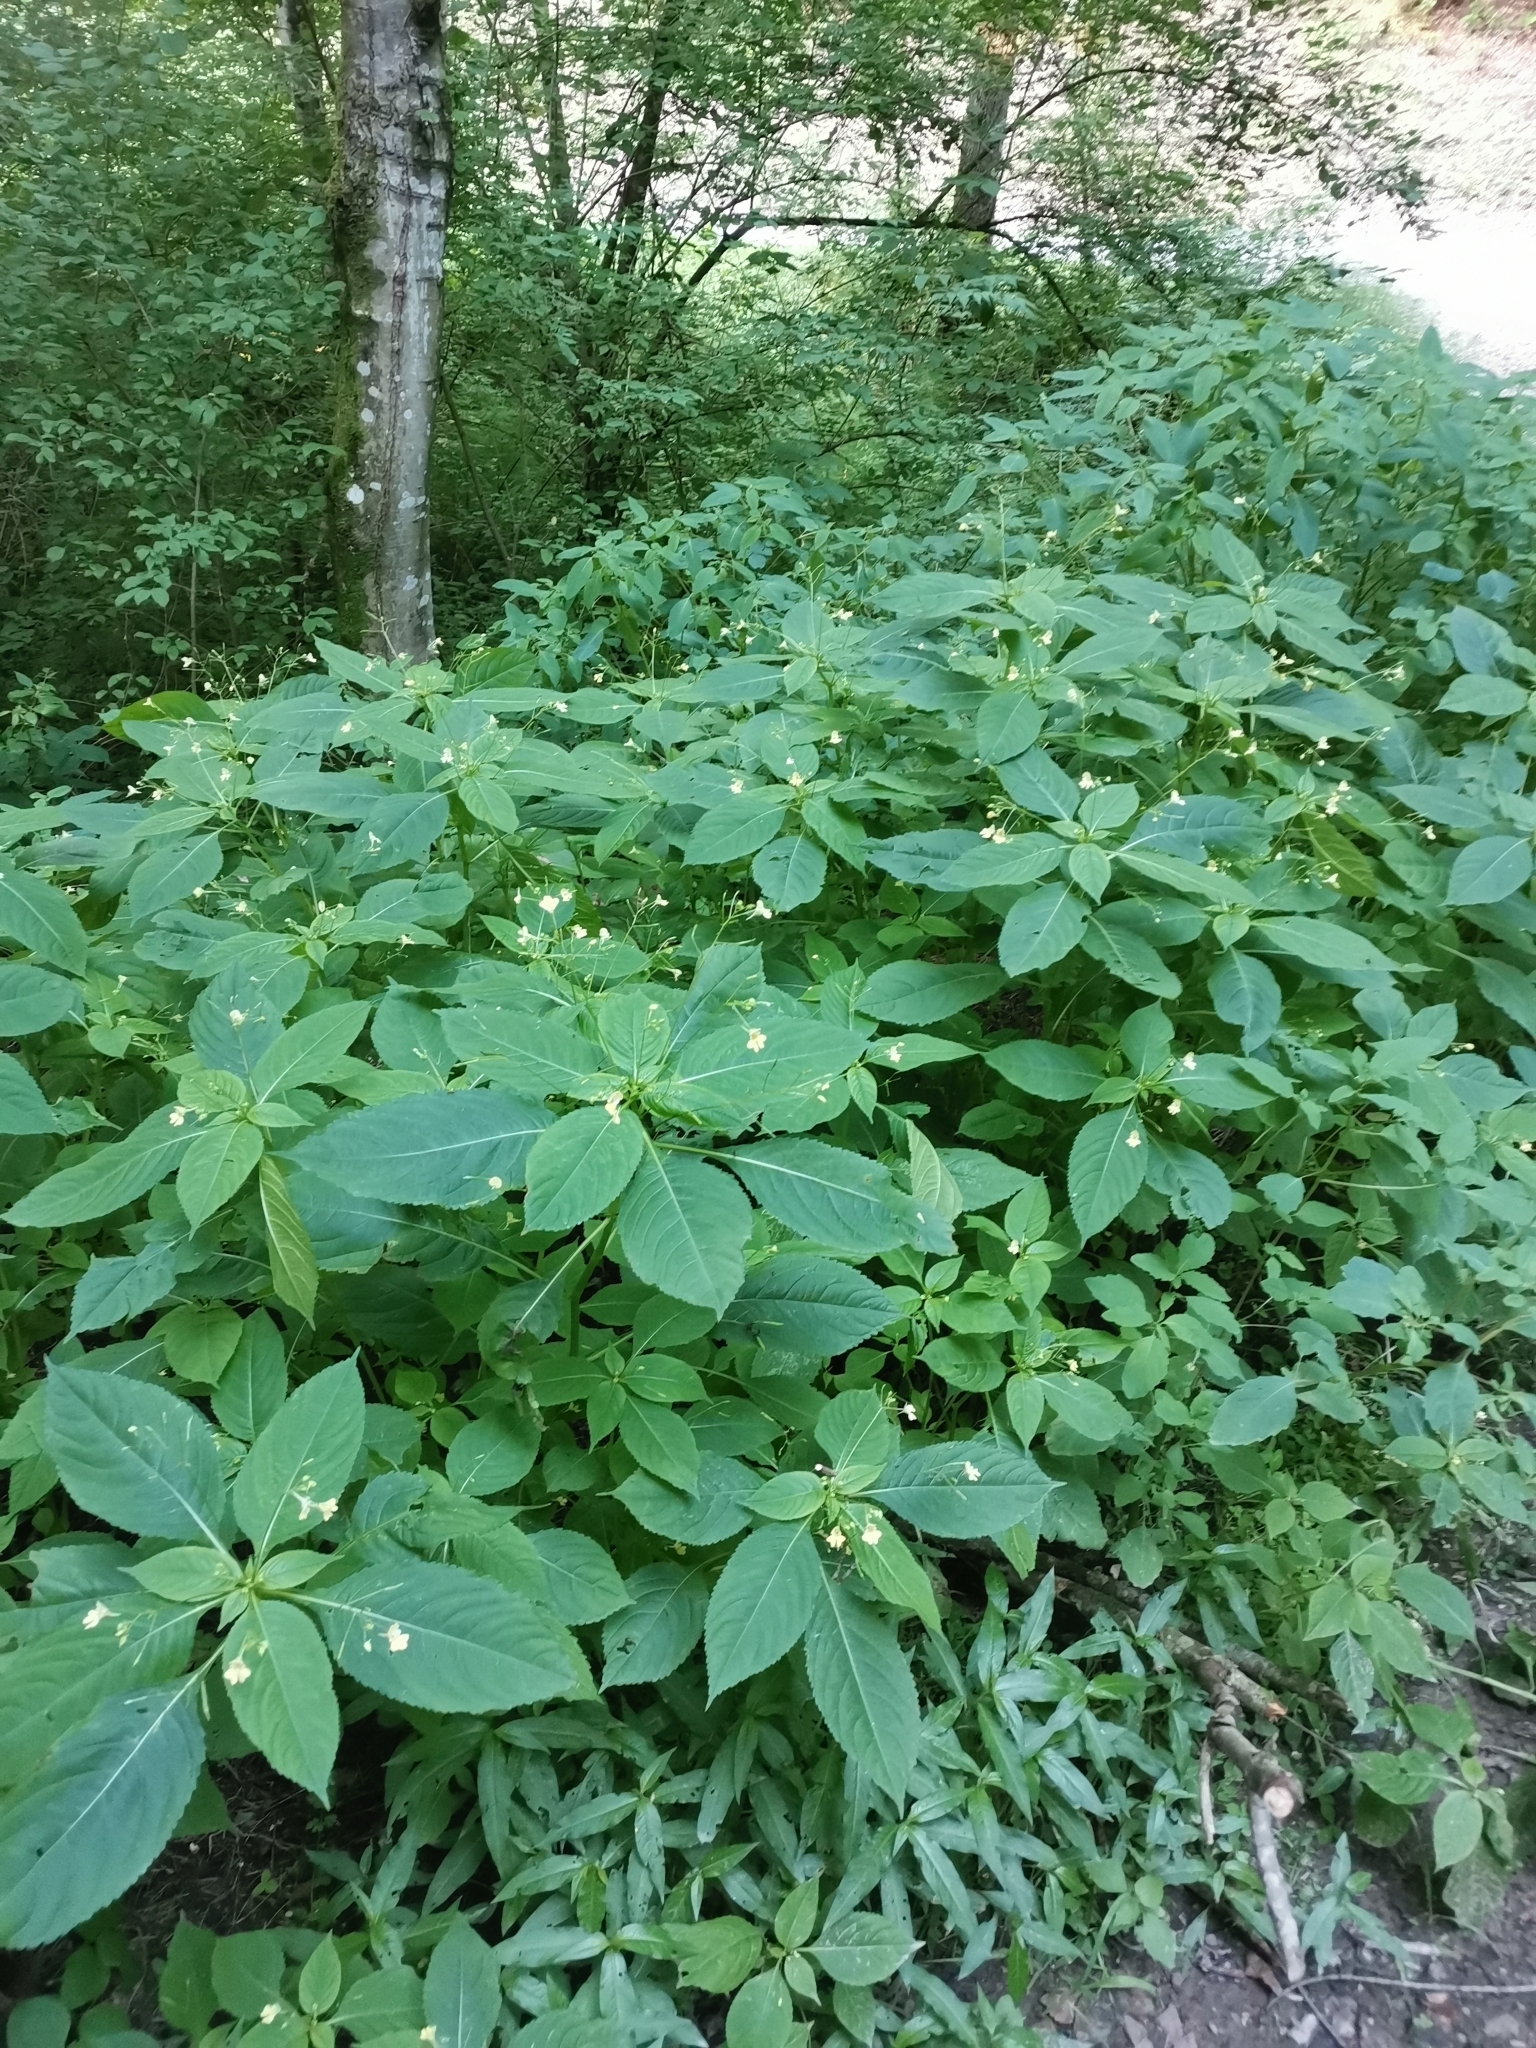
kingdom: Plantae
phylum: Tracheophyta
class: Magnoliopsida
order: Ericales
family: Balsaminaceae
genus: Impatiens
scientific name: Impatiens parviflora
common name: Small balsam
